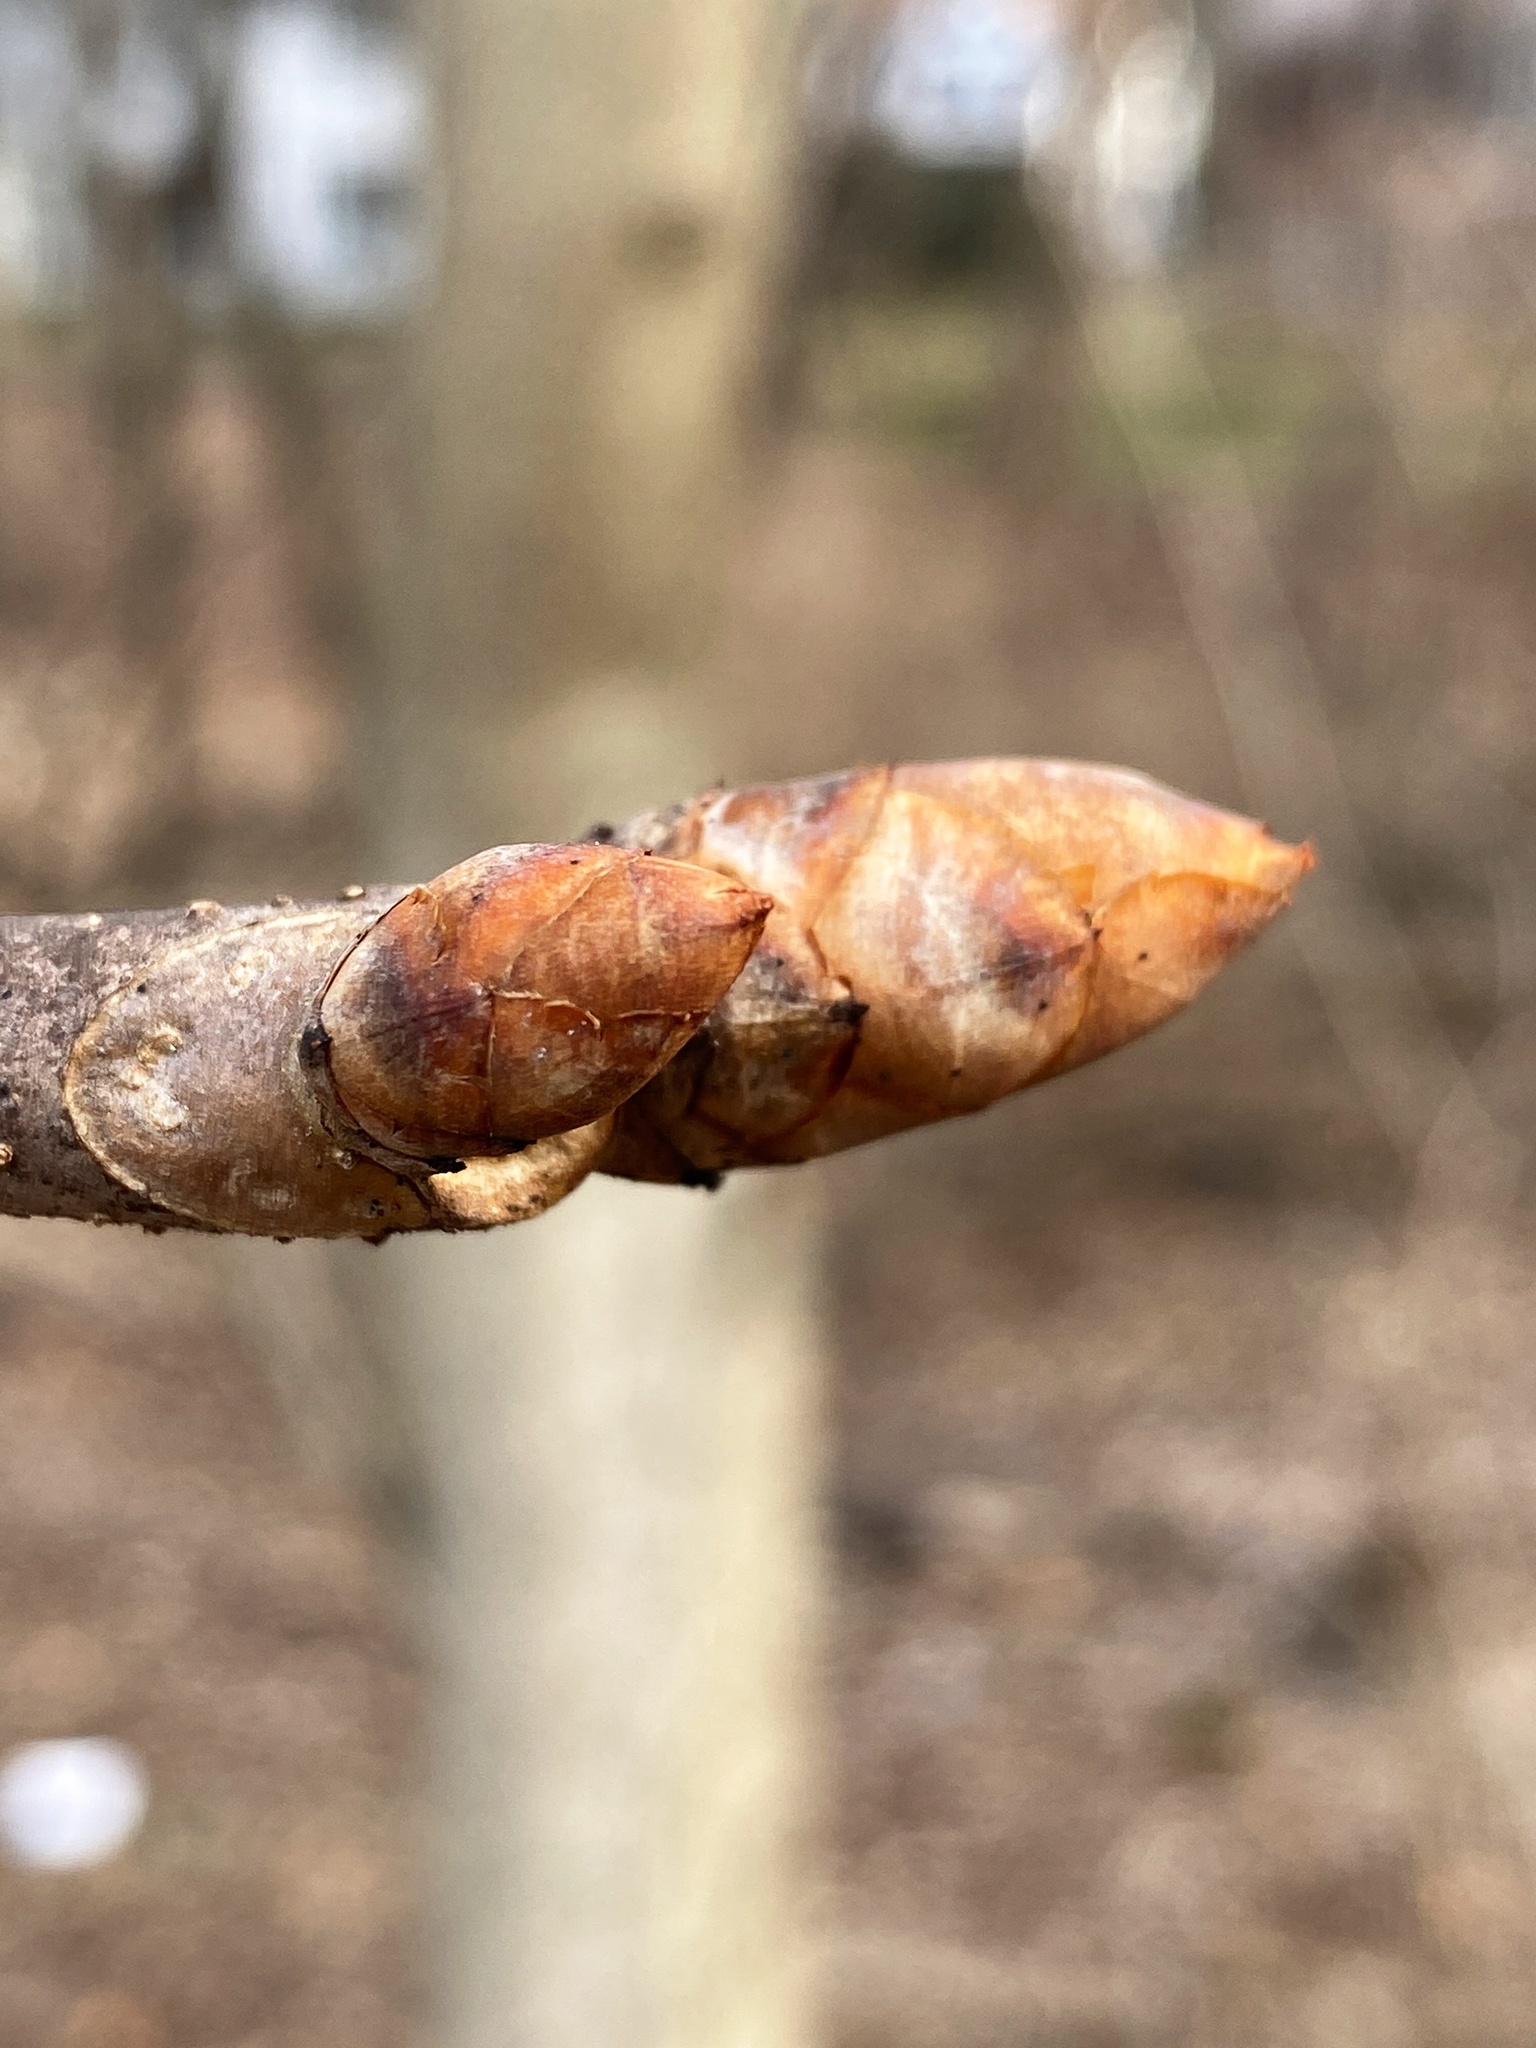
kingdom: Plantae
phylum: Tracheophyta
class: Magnoliopsida
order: Sapindales
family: Sapindaceae
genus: Aesculus
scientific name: Aesculus flava
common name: Yellow buckeye
